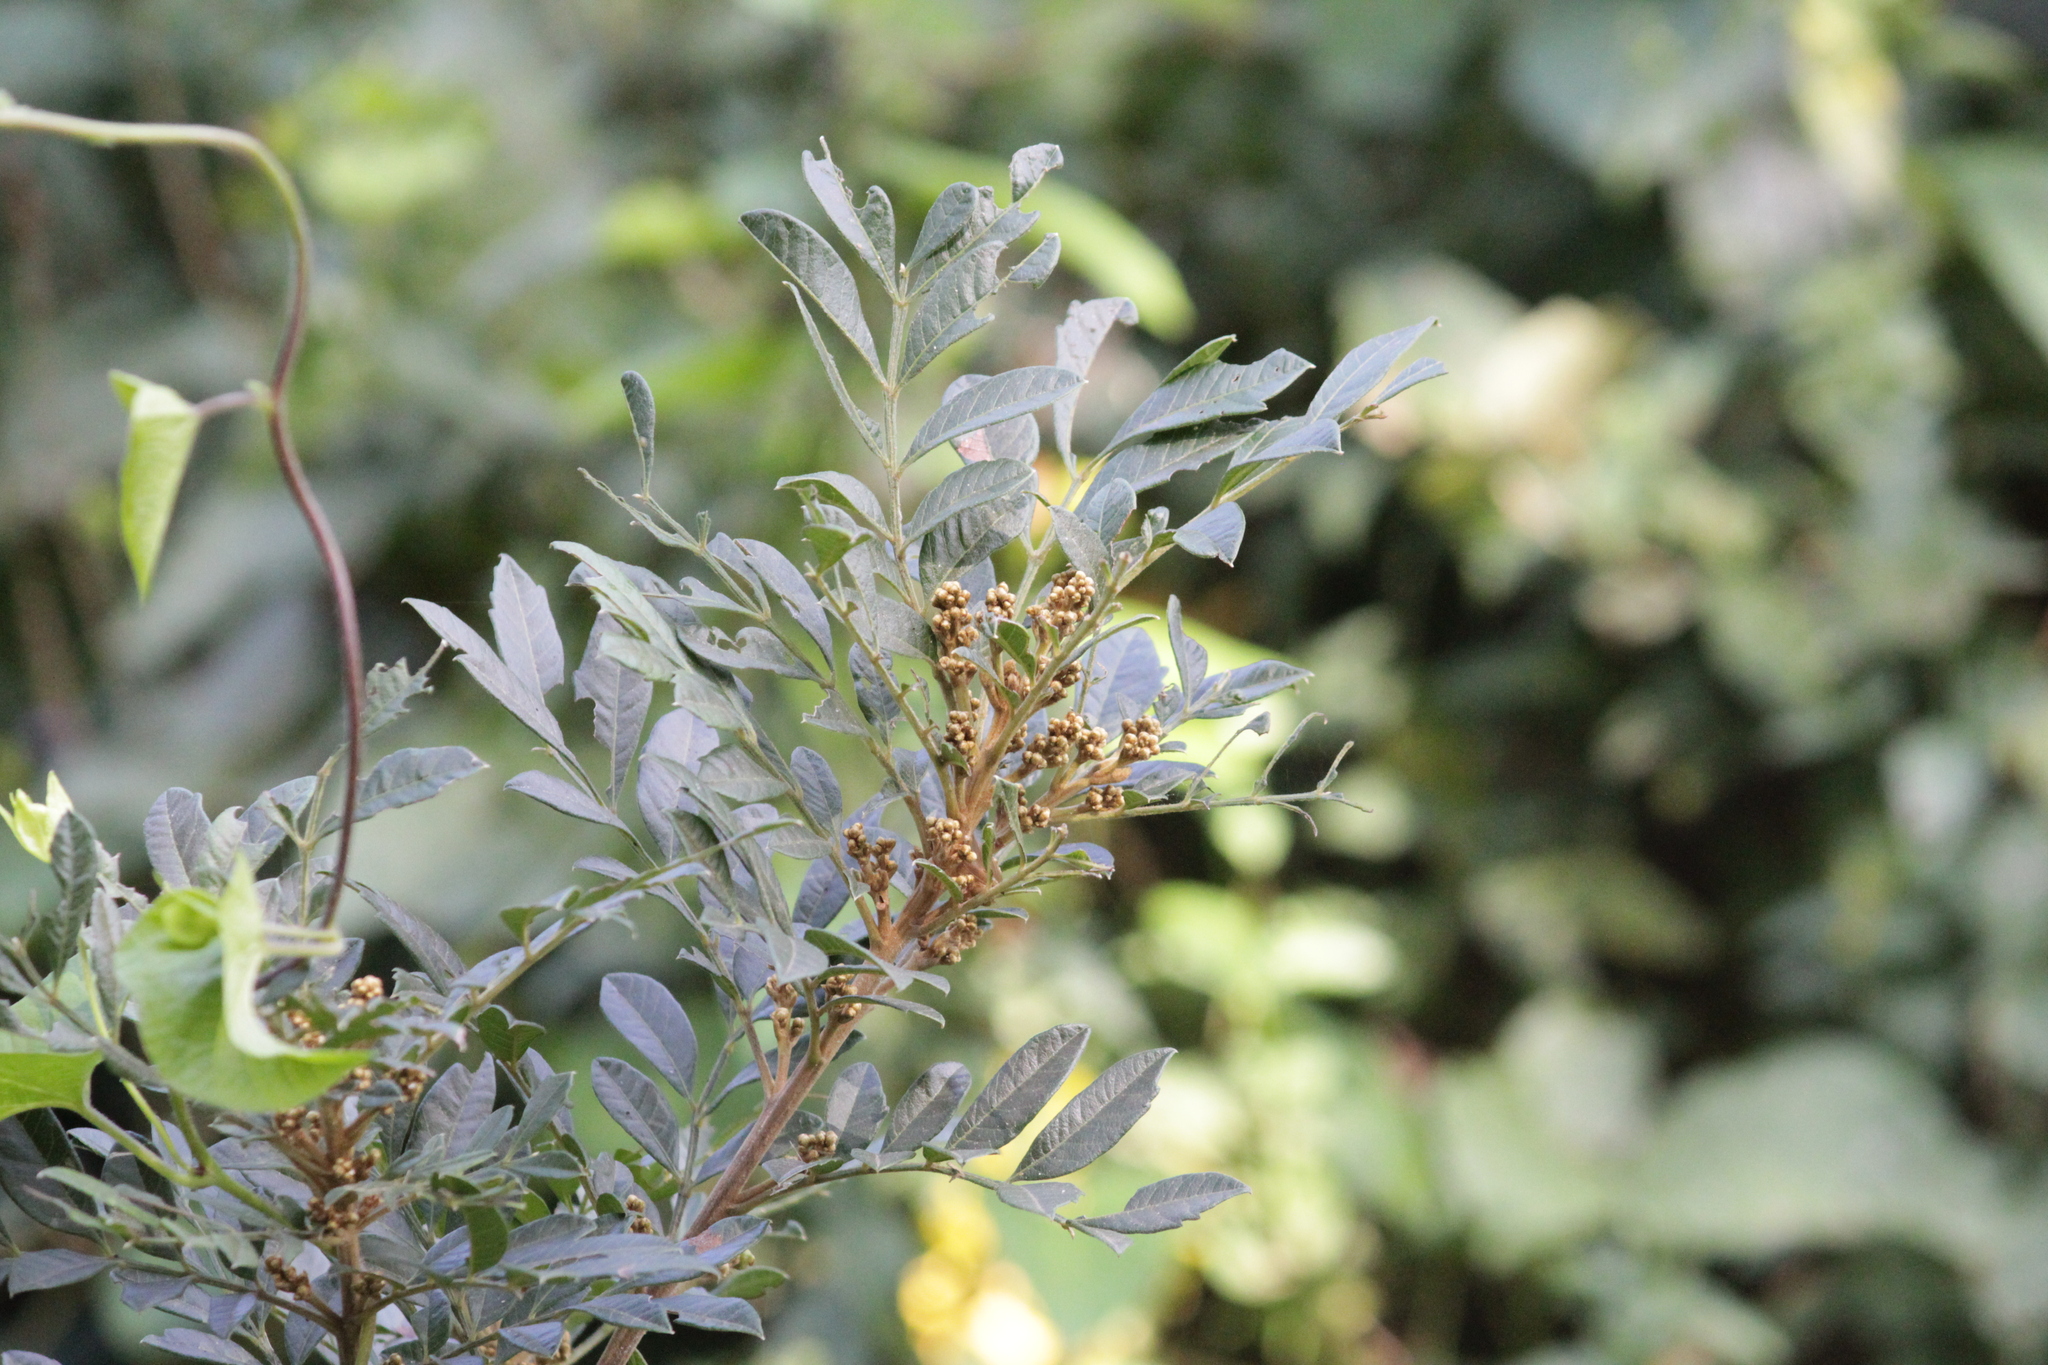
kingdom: Plantae
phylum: Tracheophyta
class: Magnoliopsida
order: Sapindales
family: Sapindaceae
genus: Hippobromus
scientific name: Hippobromus pauciflorus
